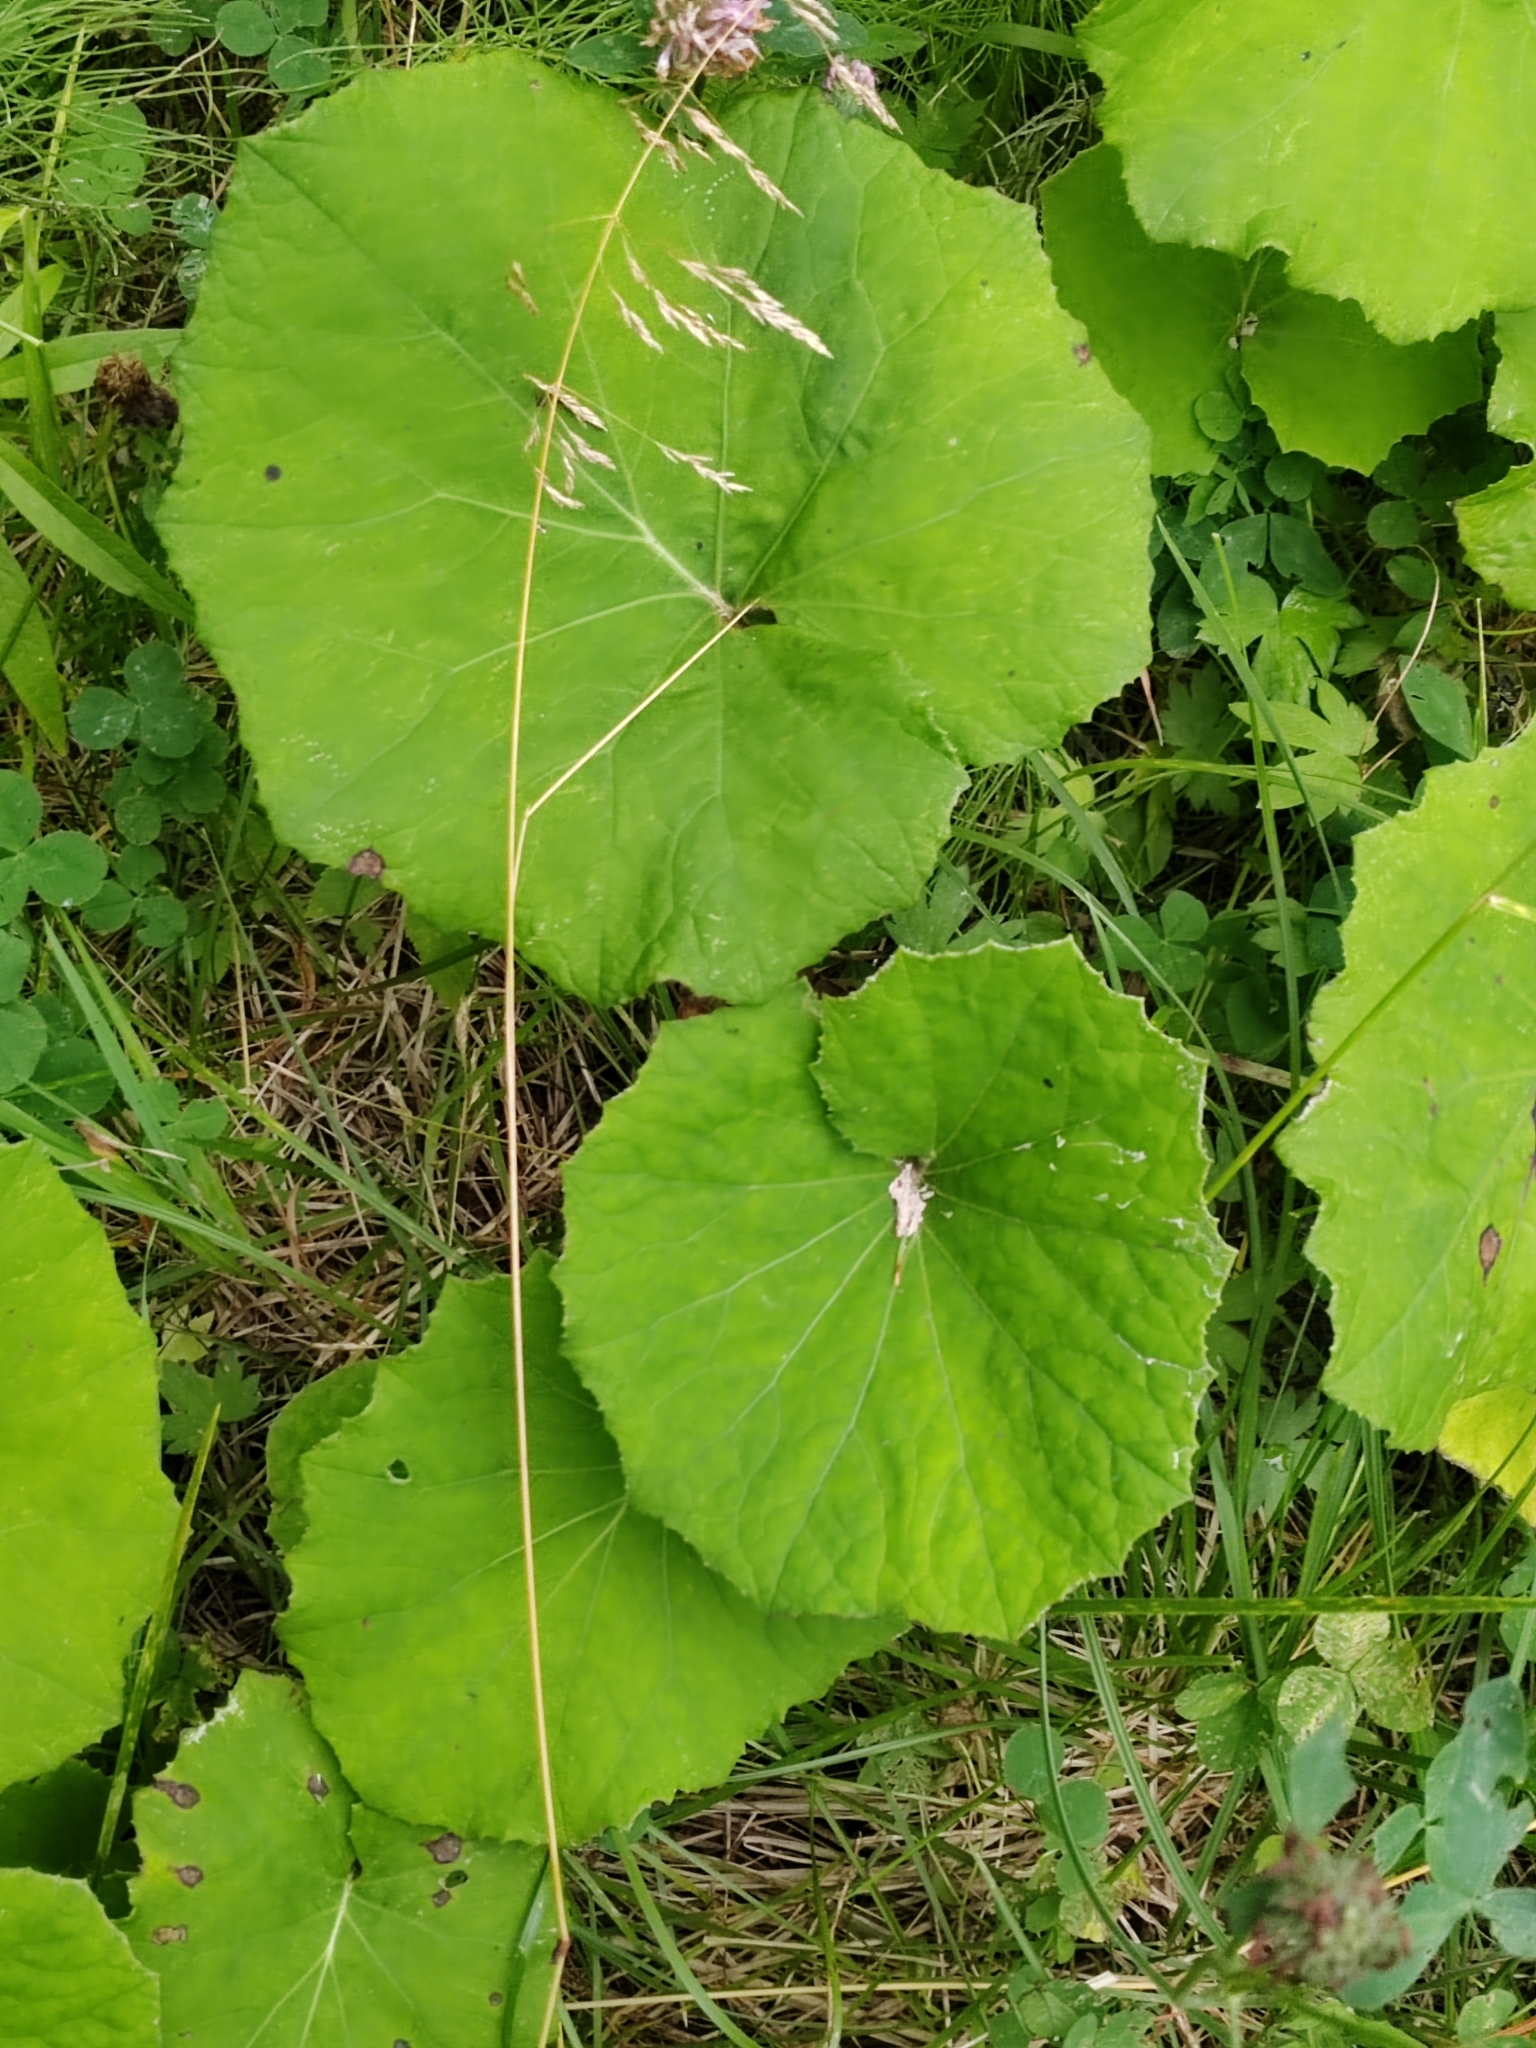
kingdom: Plantae
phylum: Tracheophyta
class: Magnoliopsida
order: Asterales
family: Asteraceae
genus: Tussilago
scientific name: Tussilago farfara
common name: Coltsfoot
